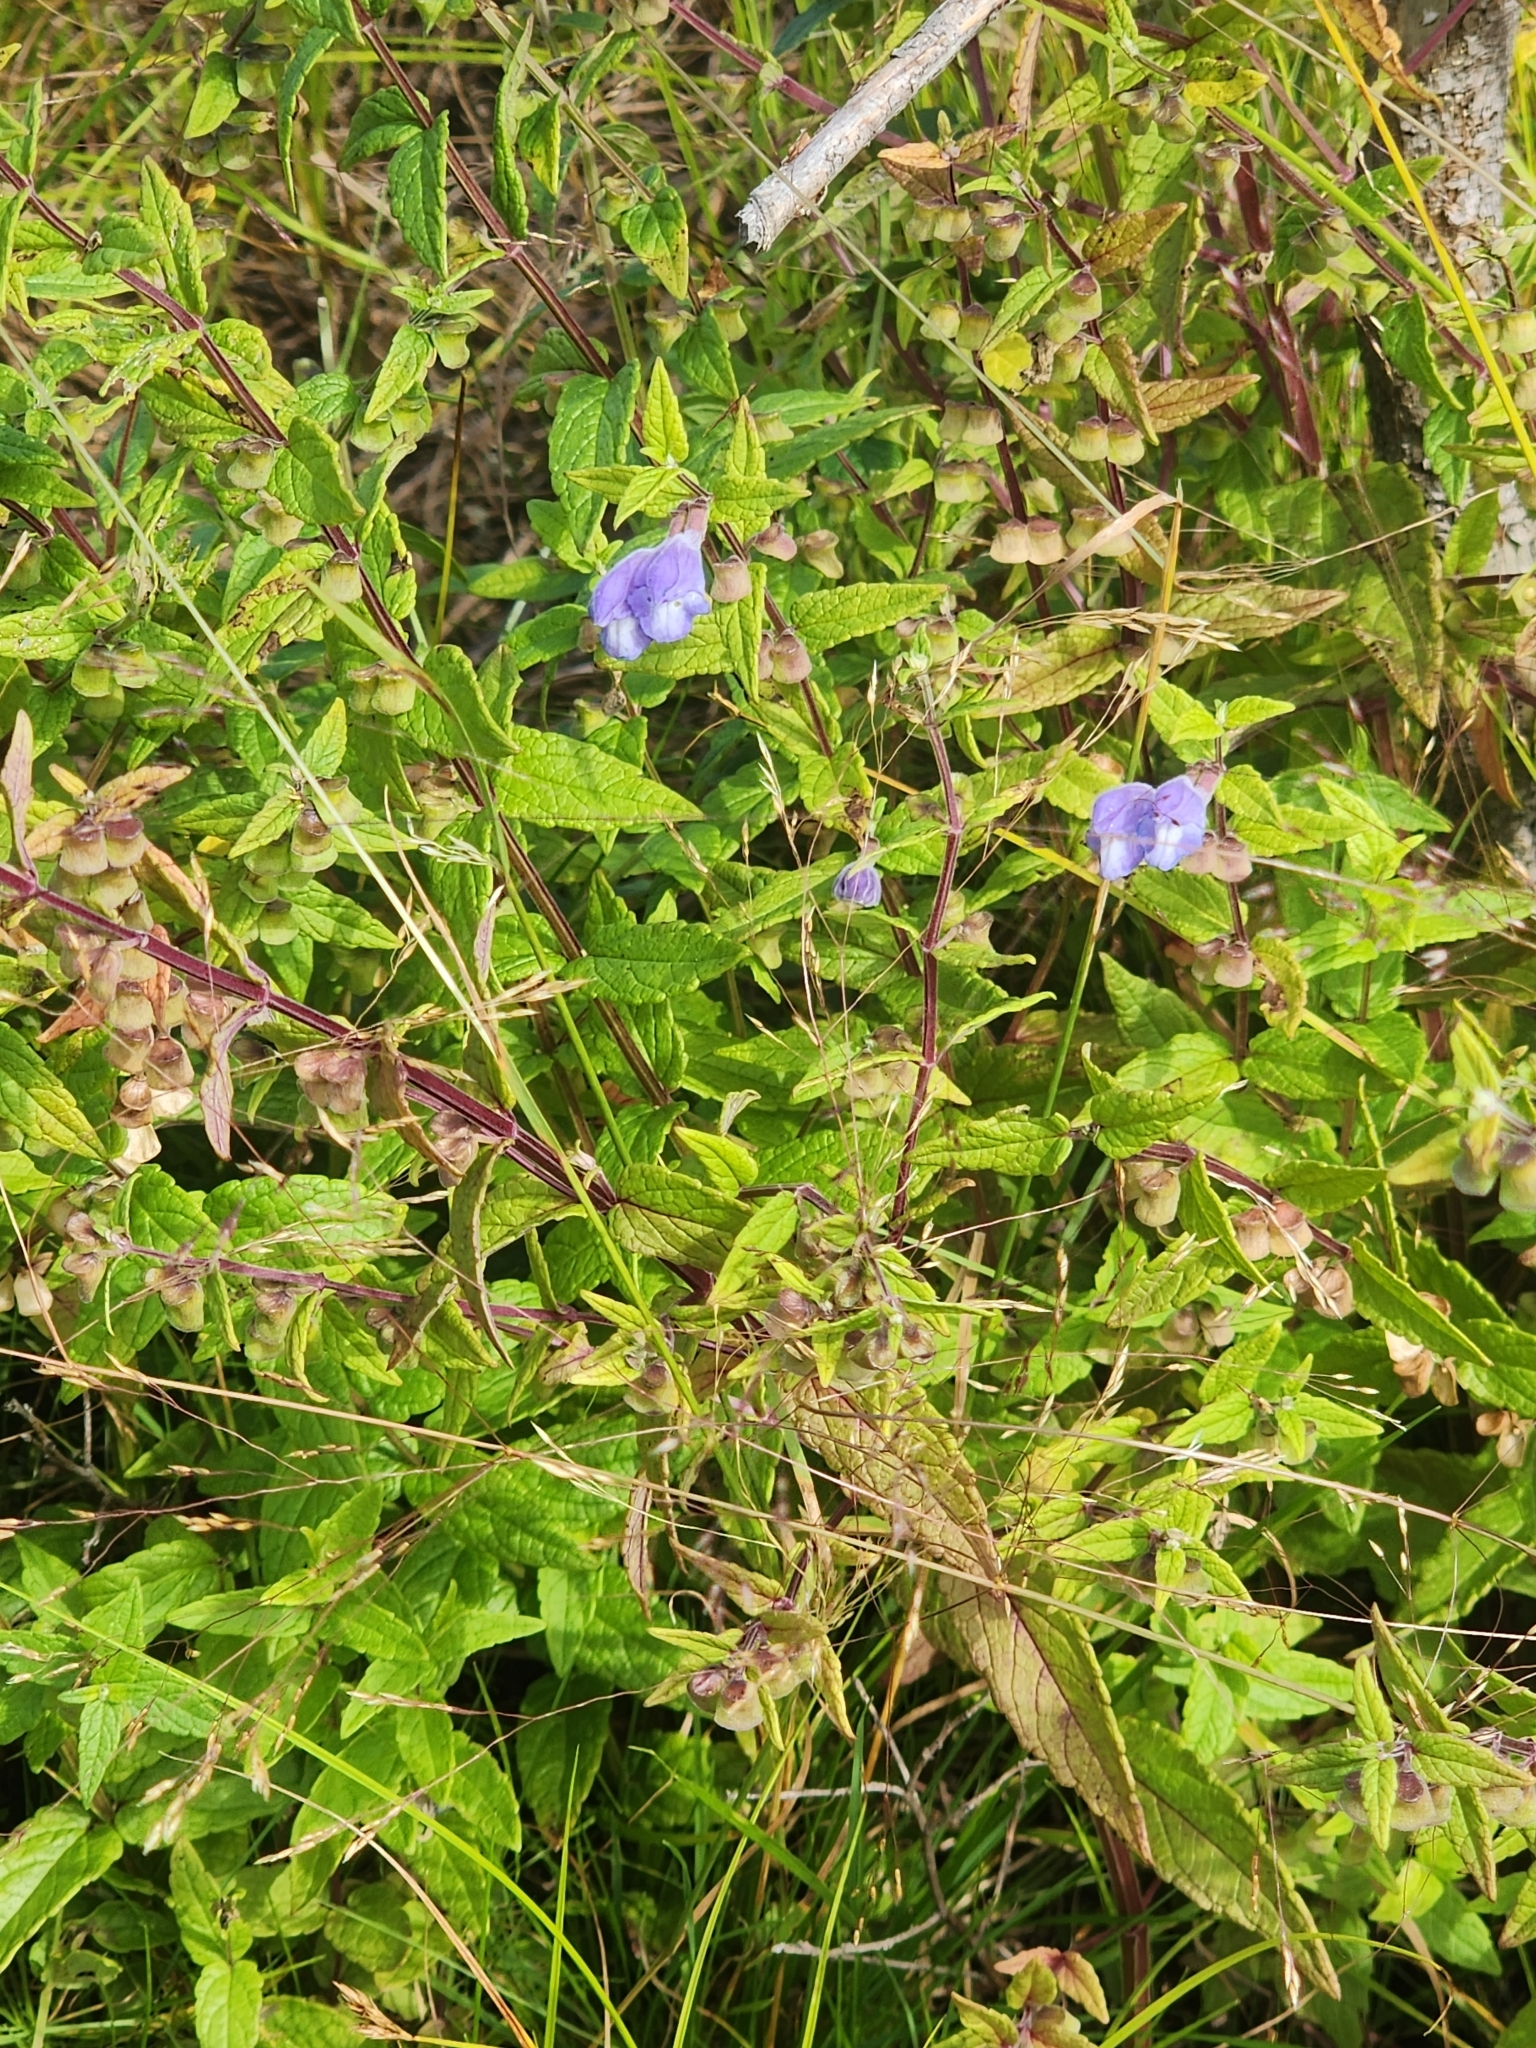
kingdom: Plantae
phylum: Tracheophyta
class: Magnoliopsida
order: Lamiales
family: Lamiaceae
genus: Scutellaria
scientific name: Scutellaria galericulata
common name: Skullcap
